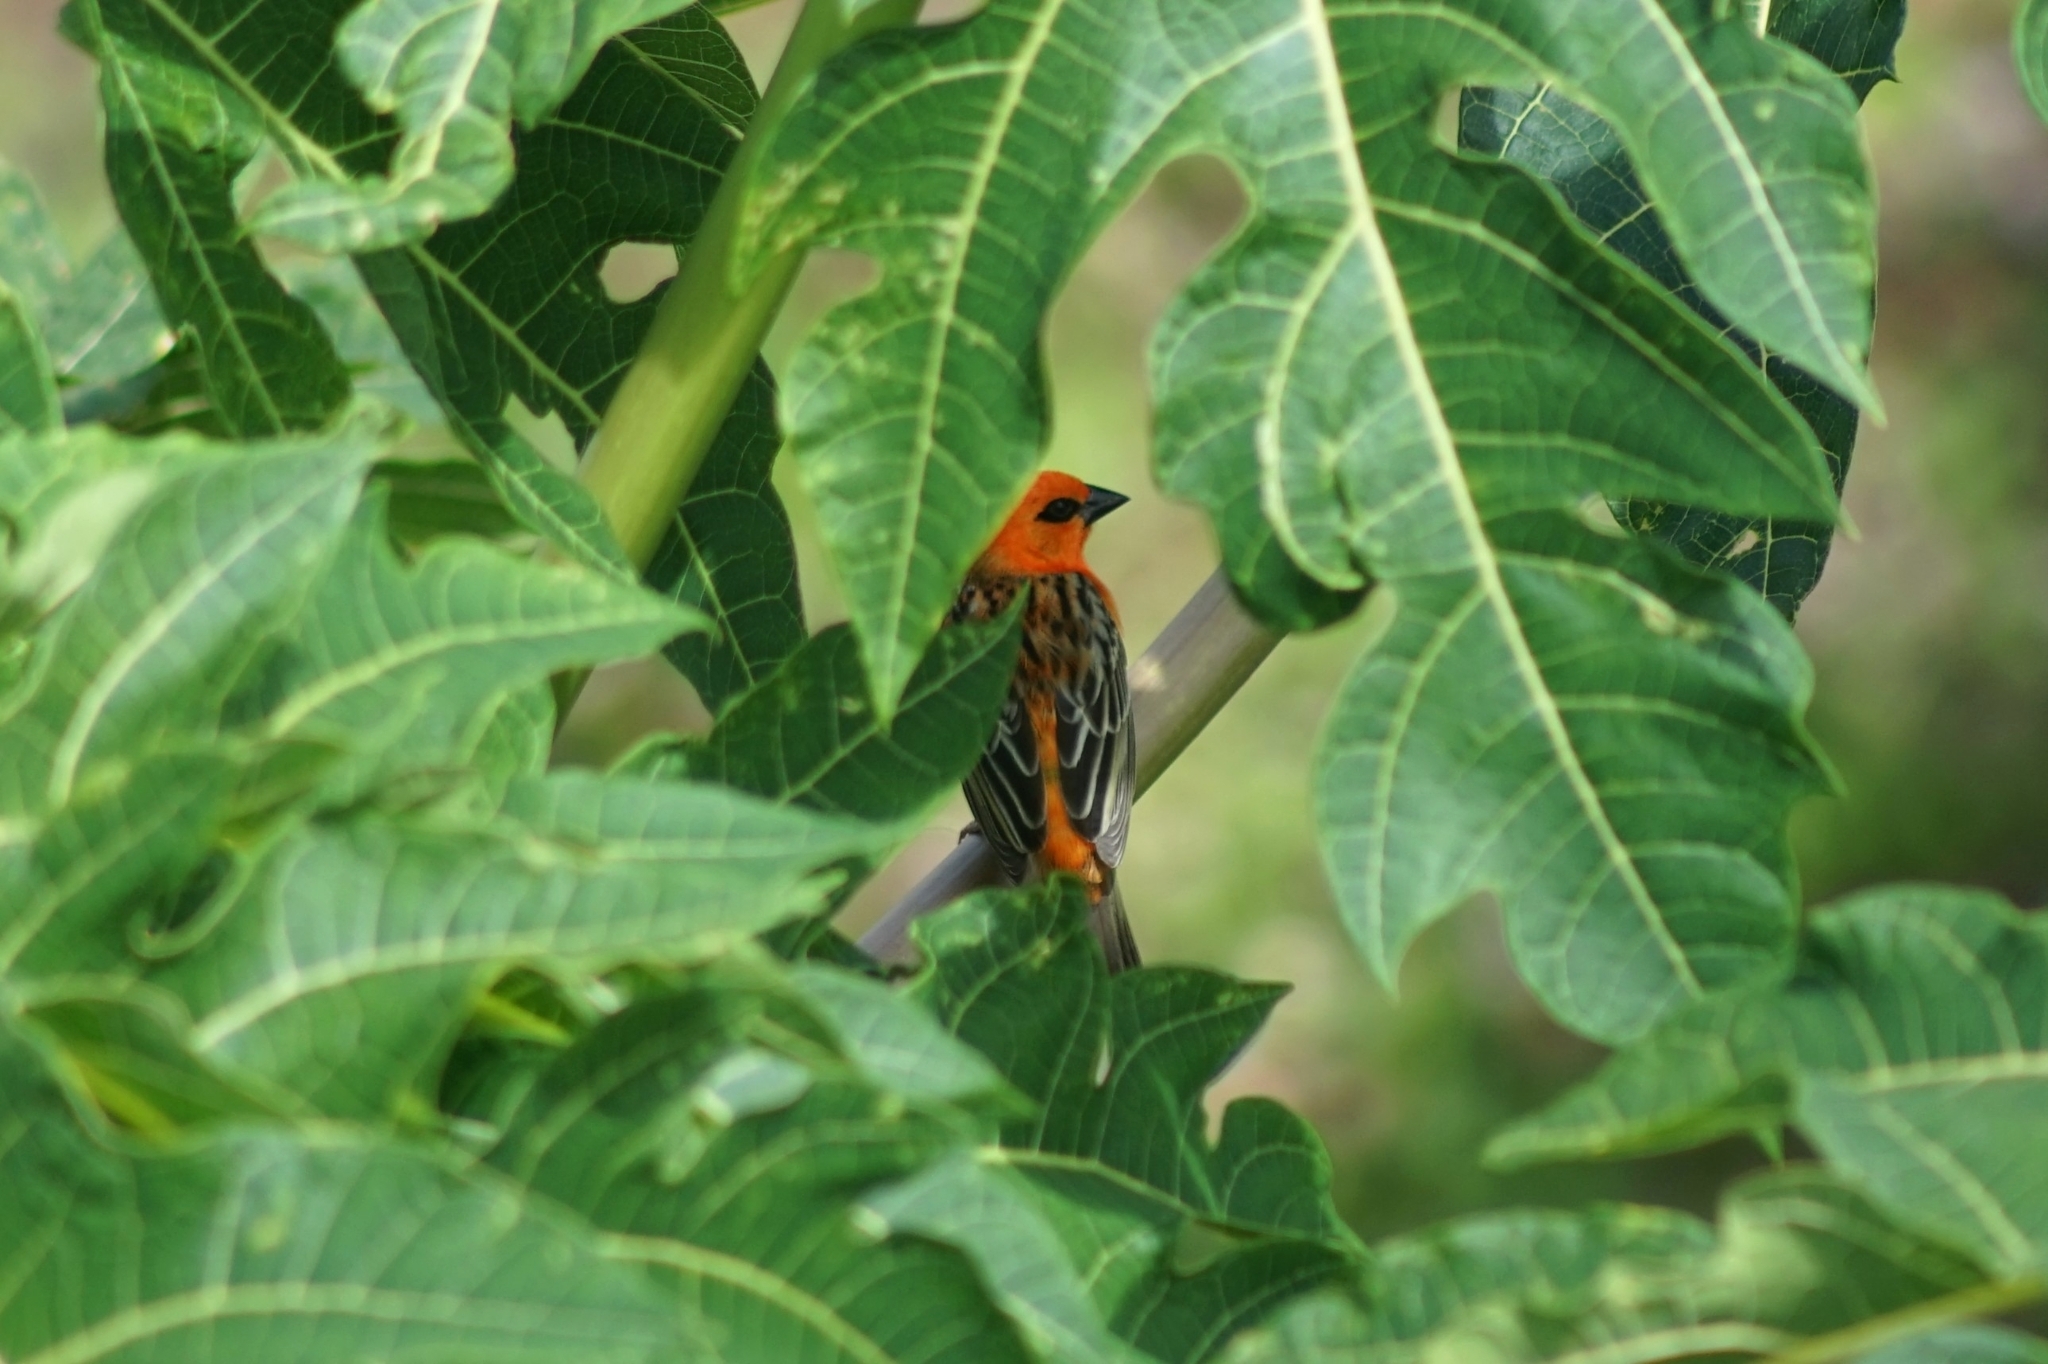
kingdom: Animalia
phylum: Chordata
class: Aves
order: Passeriformes
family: Ploceidae
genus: Foudia
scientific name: Foudia madagascariensis
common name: Red fody
